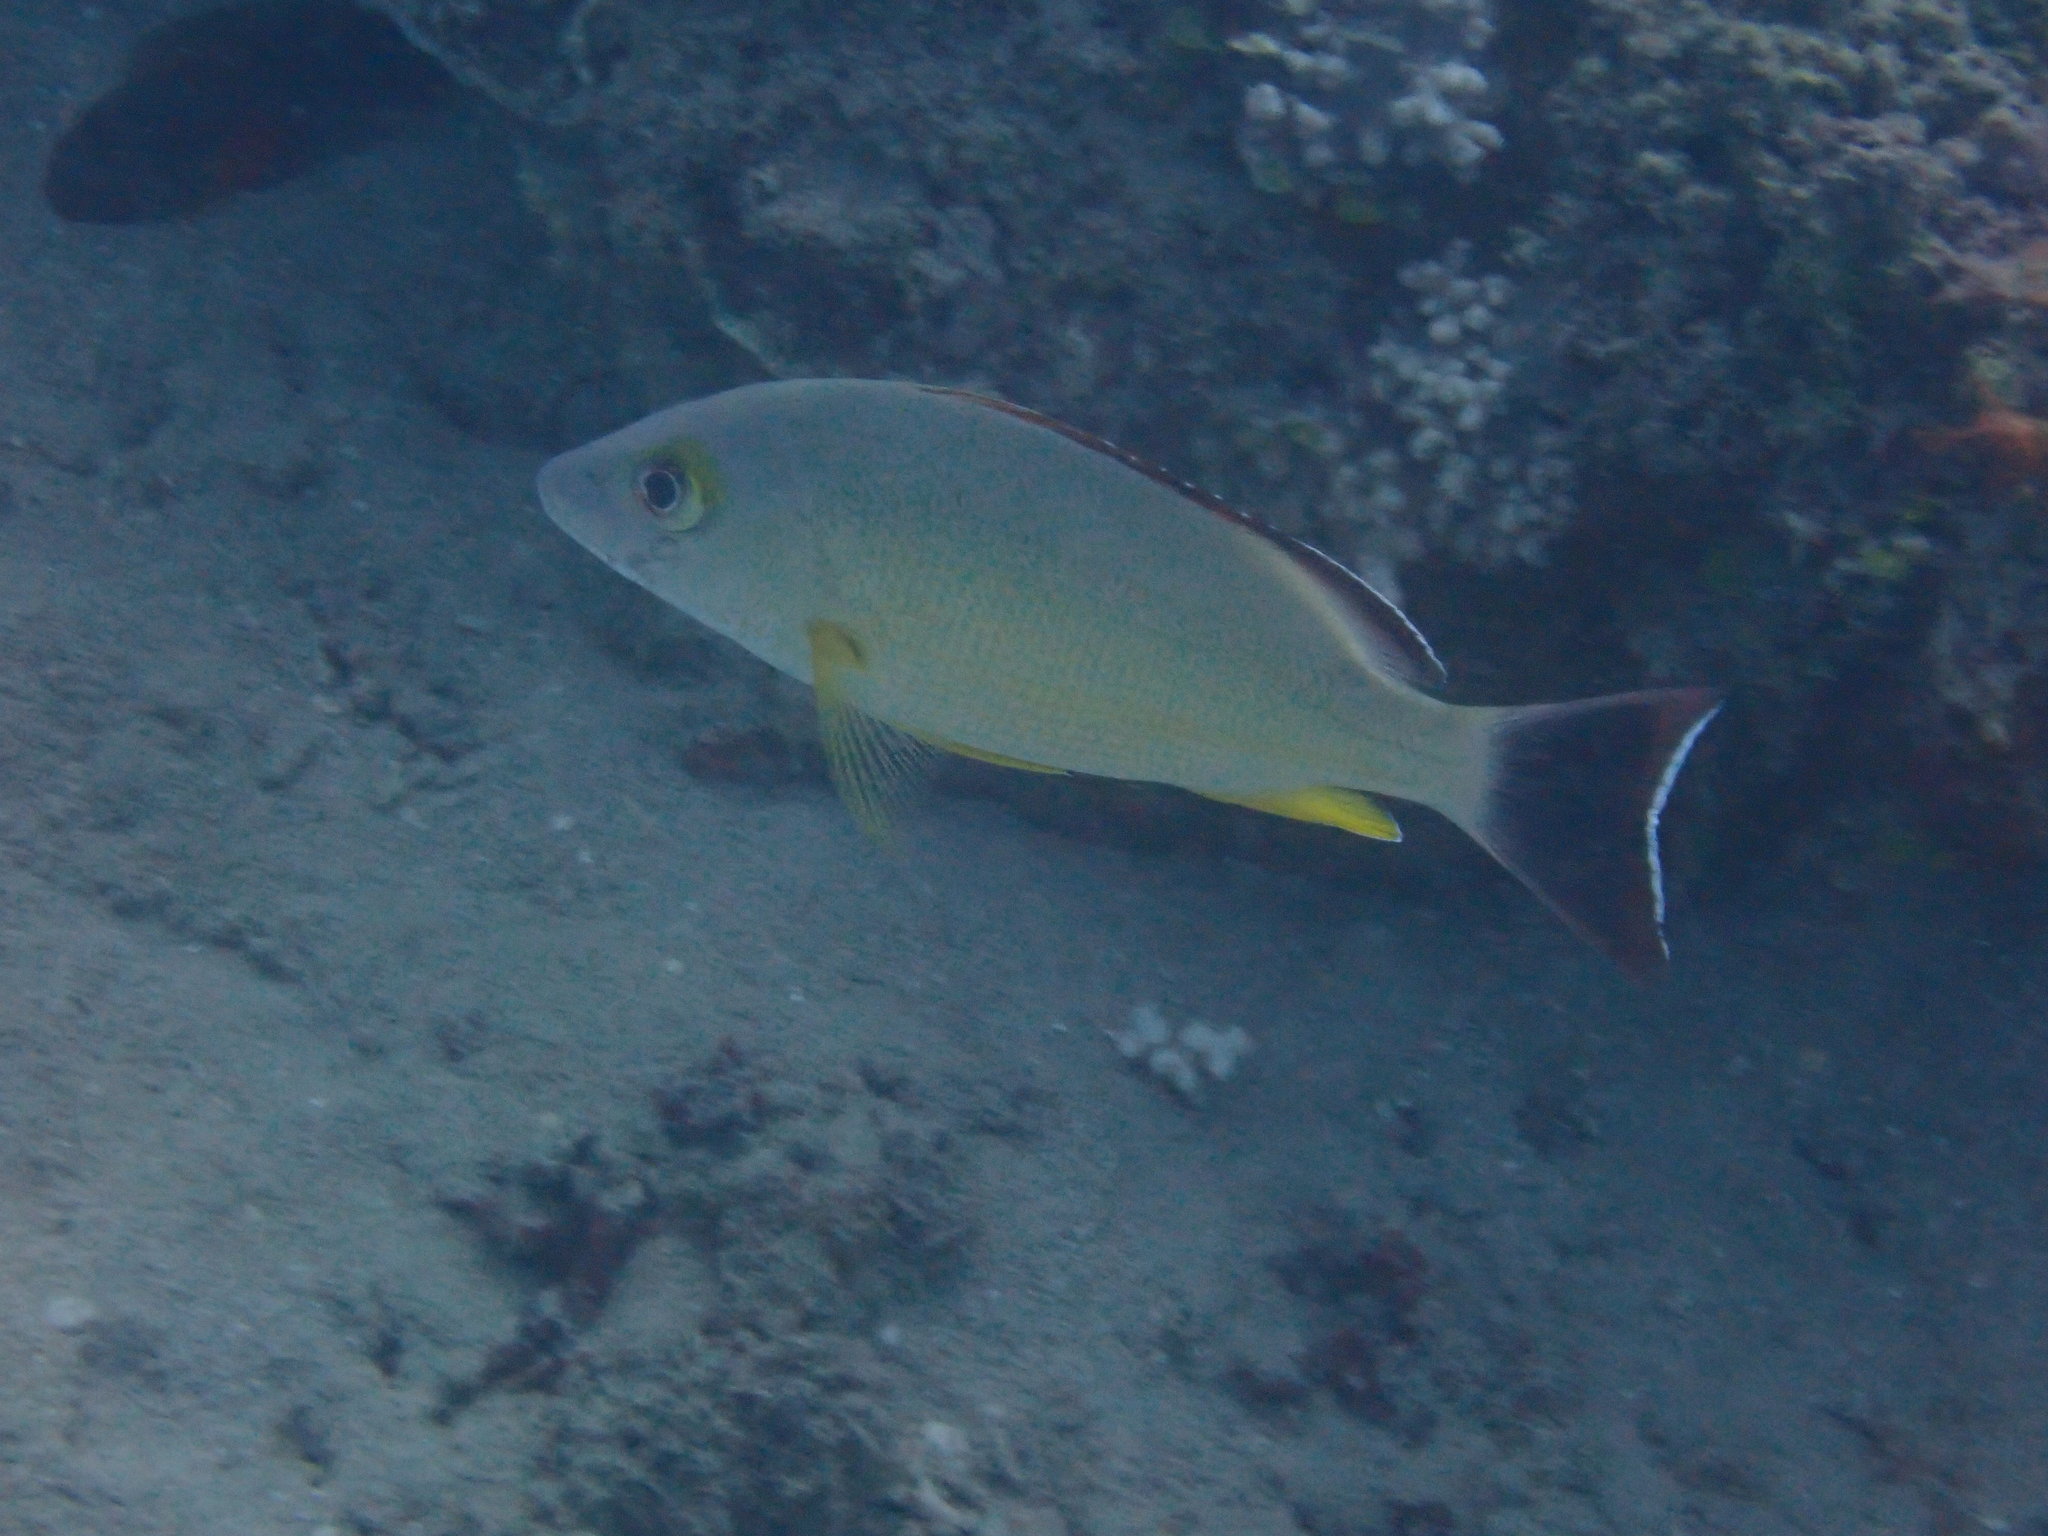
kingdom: Animalia
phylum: Chordata
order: Perciformes
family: Lutjanidae
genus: Lutjanus
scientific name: Lutjanus fulvus
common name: Blacktail snapper
